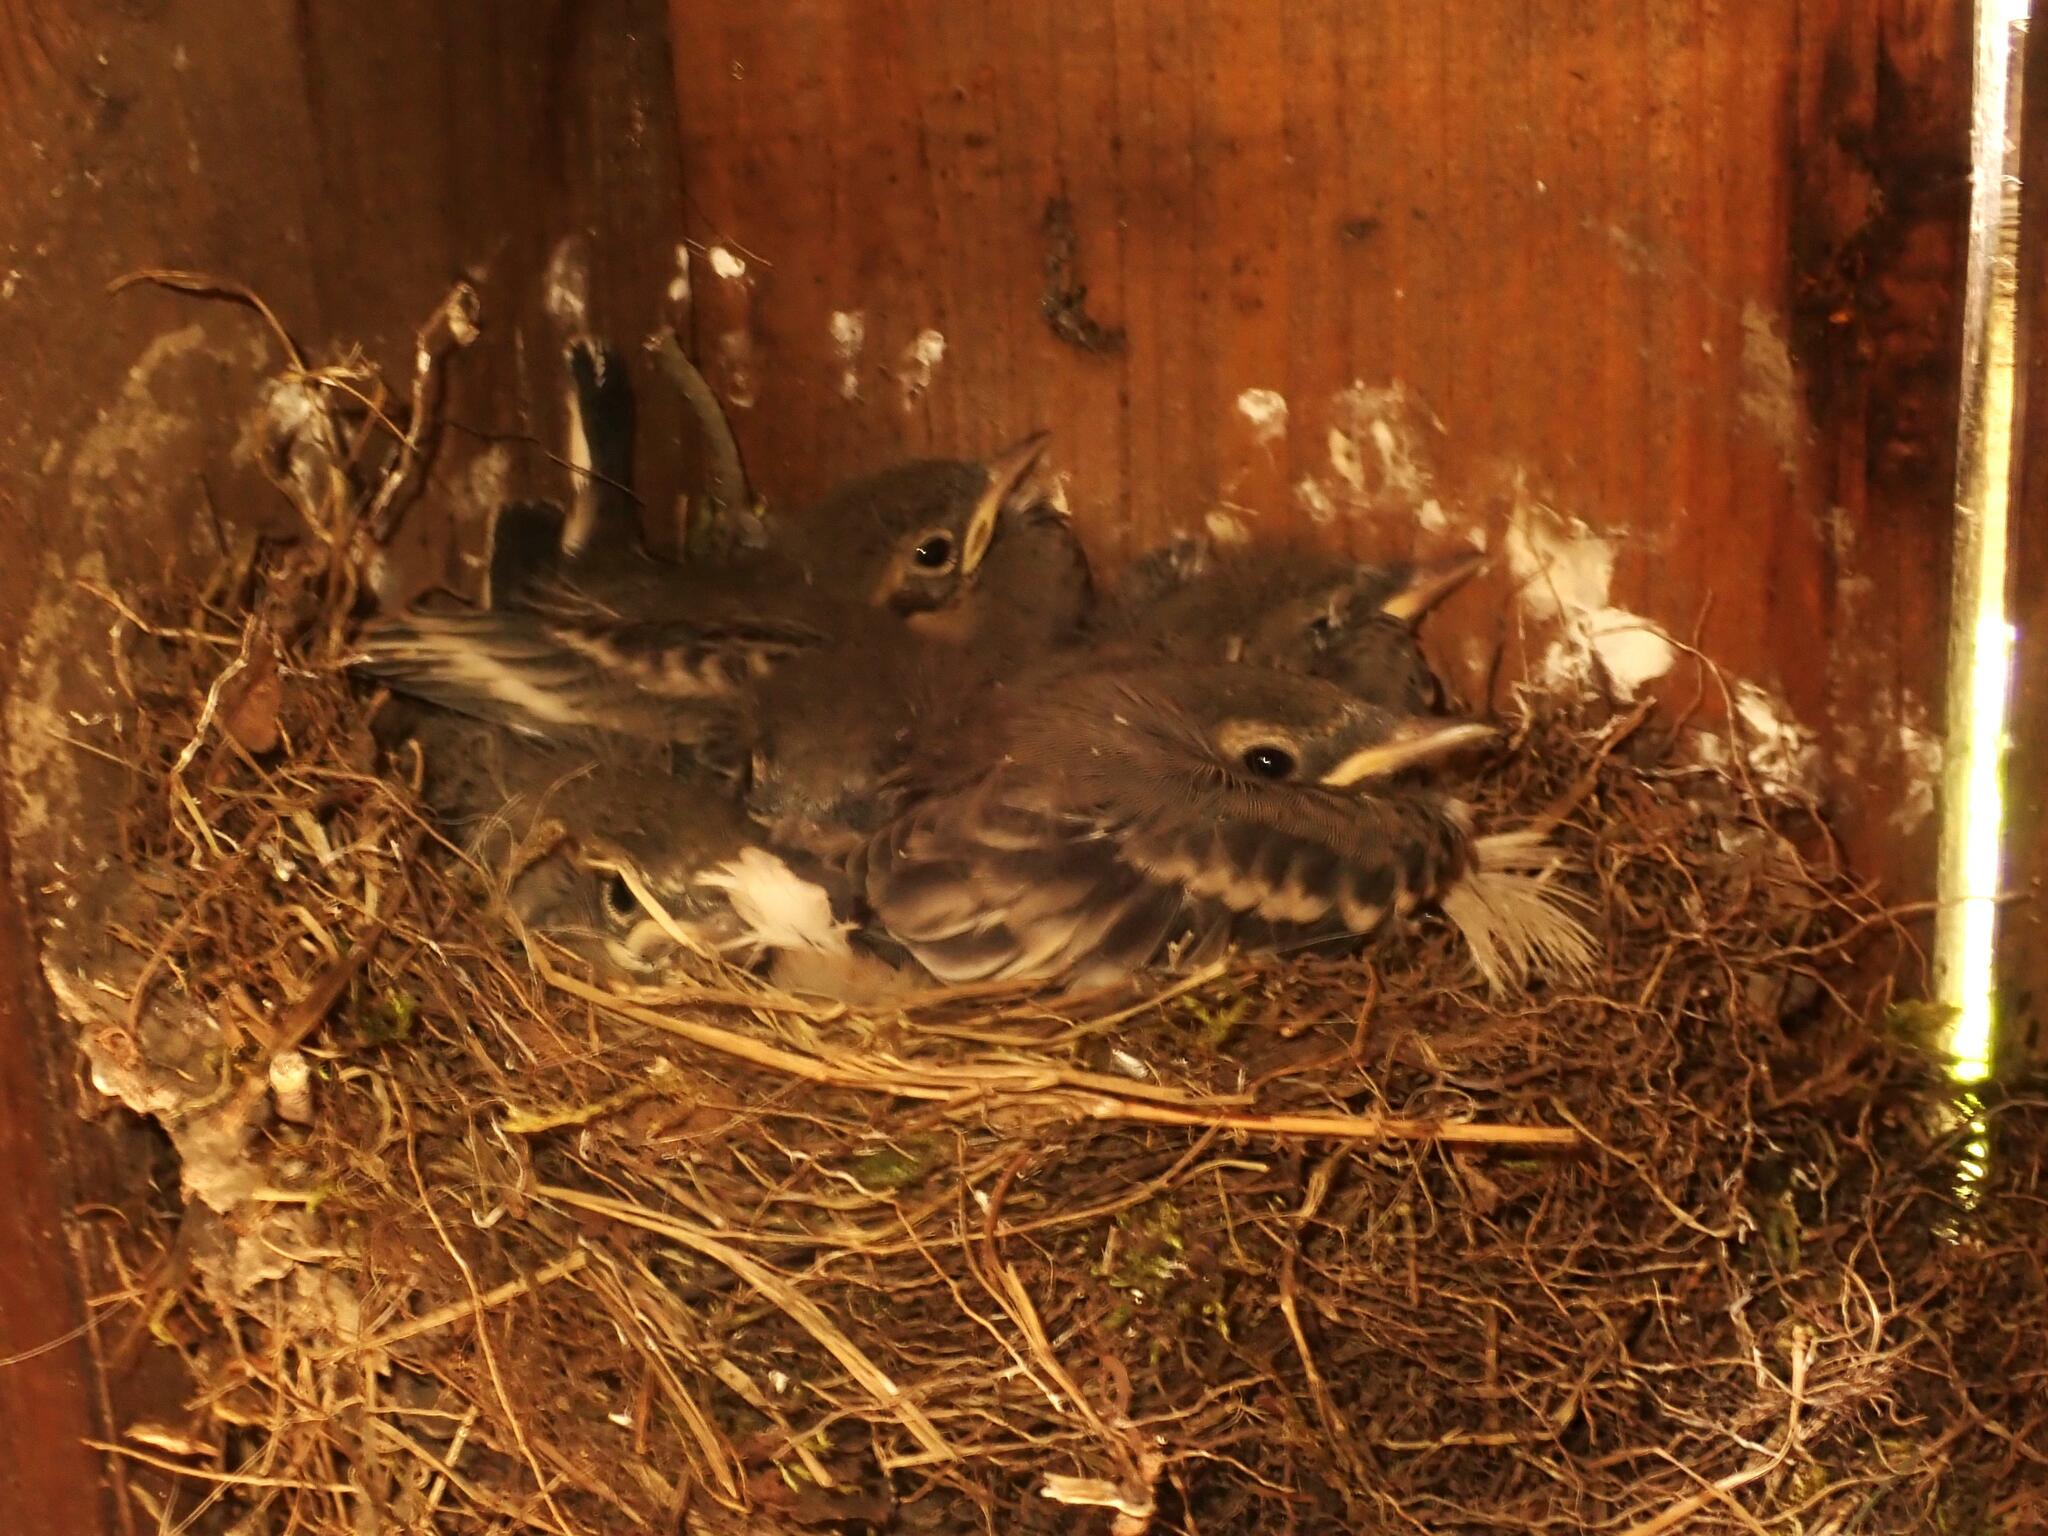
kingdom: Animalia
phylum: Chordata
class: Aves
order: Passeriformes
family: Motacillidae
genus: Motacilla
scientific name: Motacilla alba
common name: White wagtail
